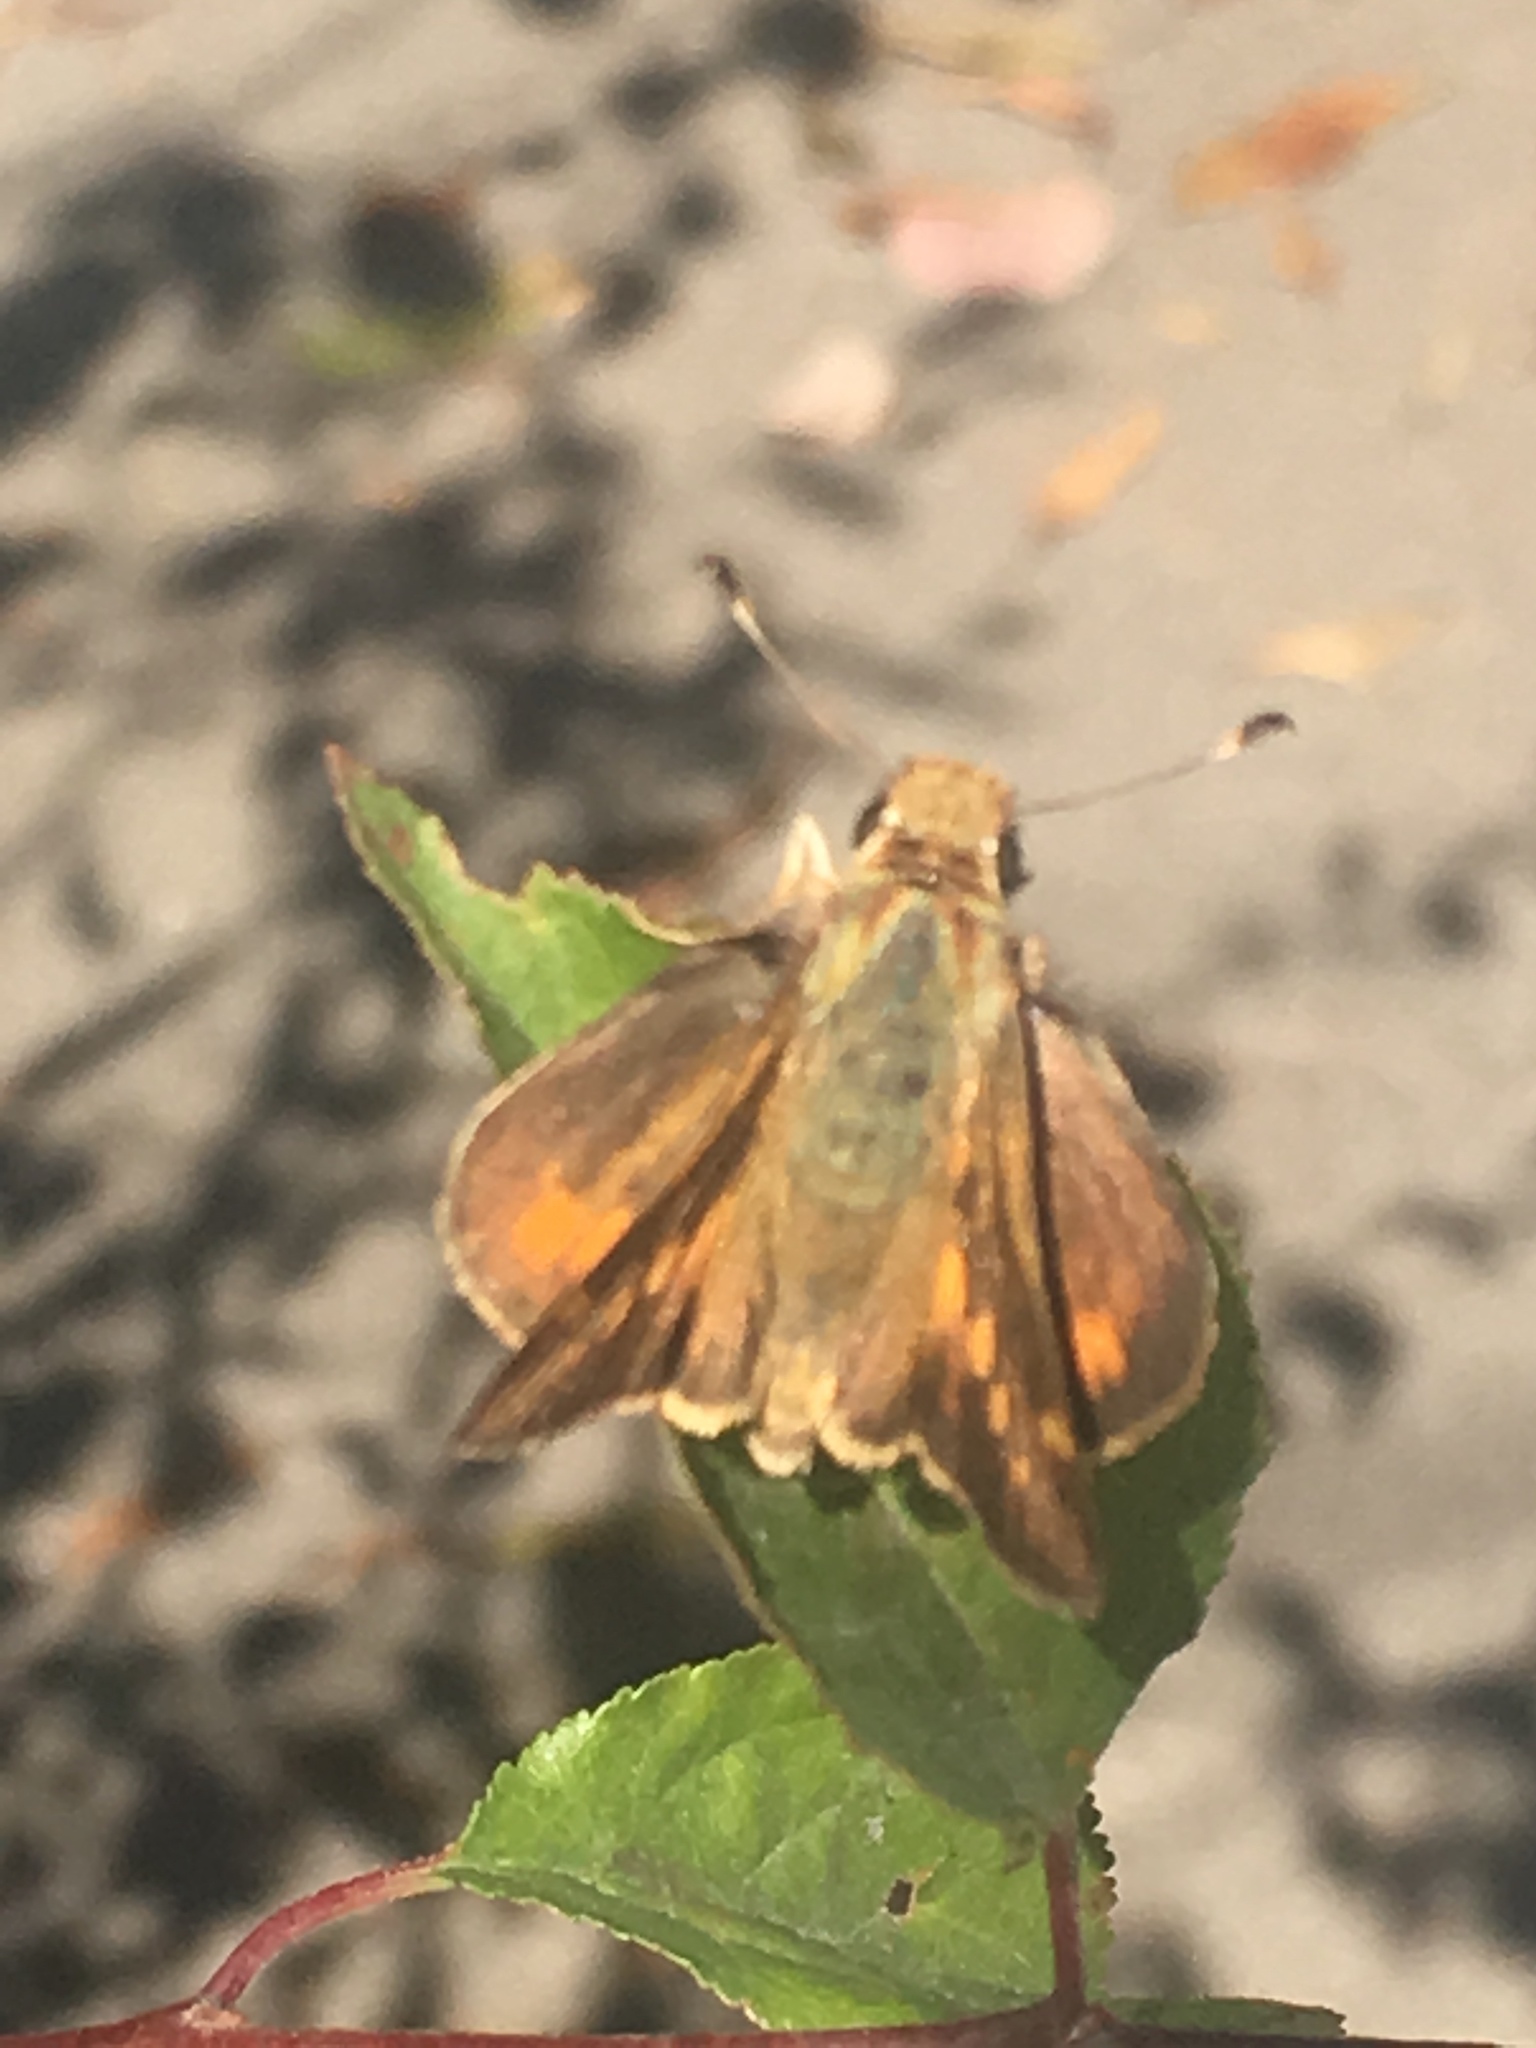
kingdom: Animalia
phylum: Arthropoda
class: Insecta
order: Lepidoptera
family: Hesperiidae
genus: Lon
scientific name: Lon melane
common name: Umber skipper
